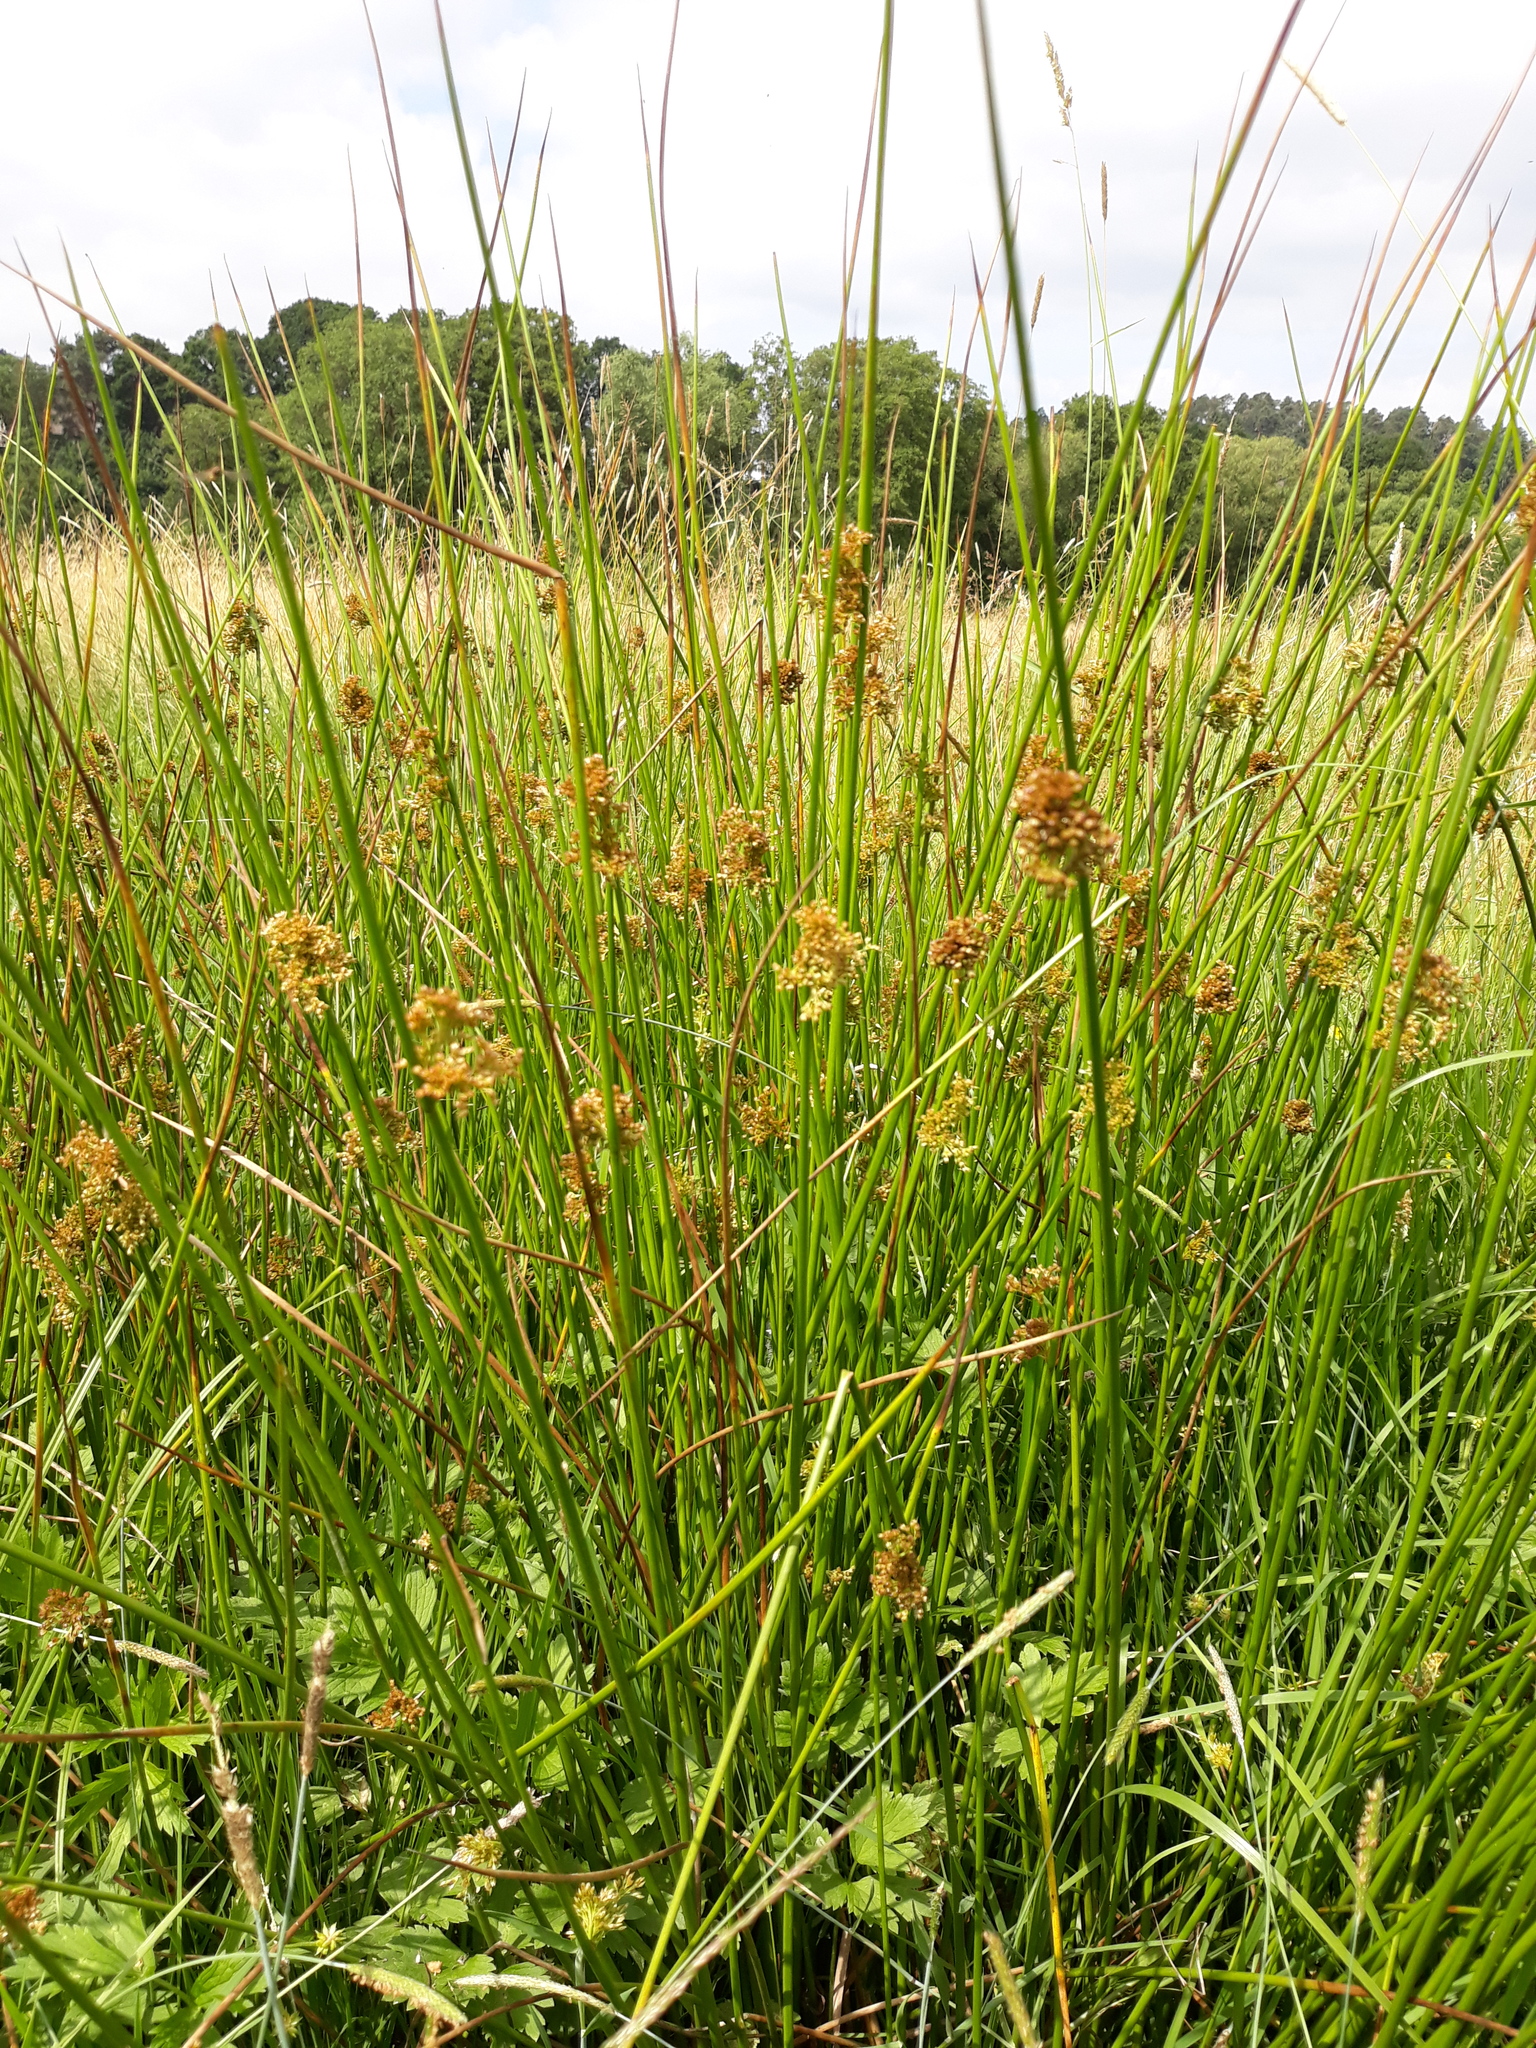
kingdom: Plantae
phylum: Tracheophyta
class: Liliopsida
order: Poales
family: Juncaceae
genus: Juncus
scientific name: Juncus effusus
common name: Soft rush
